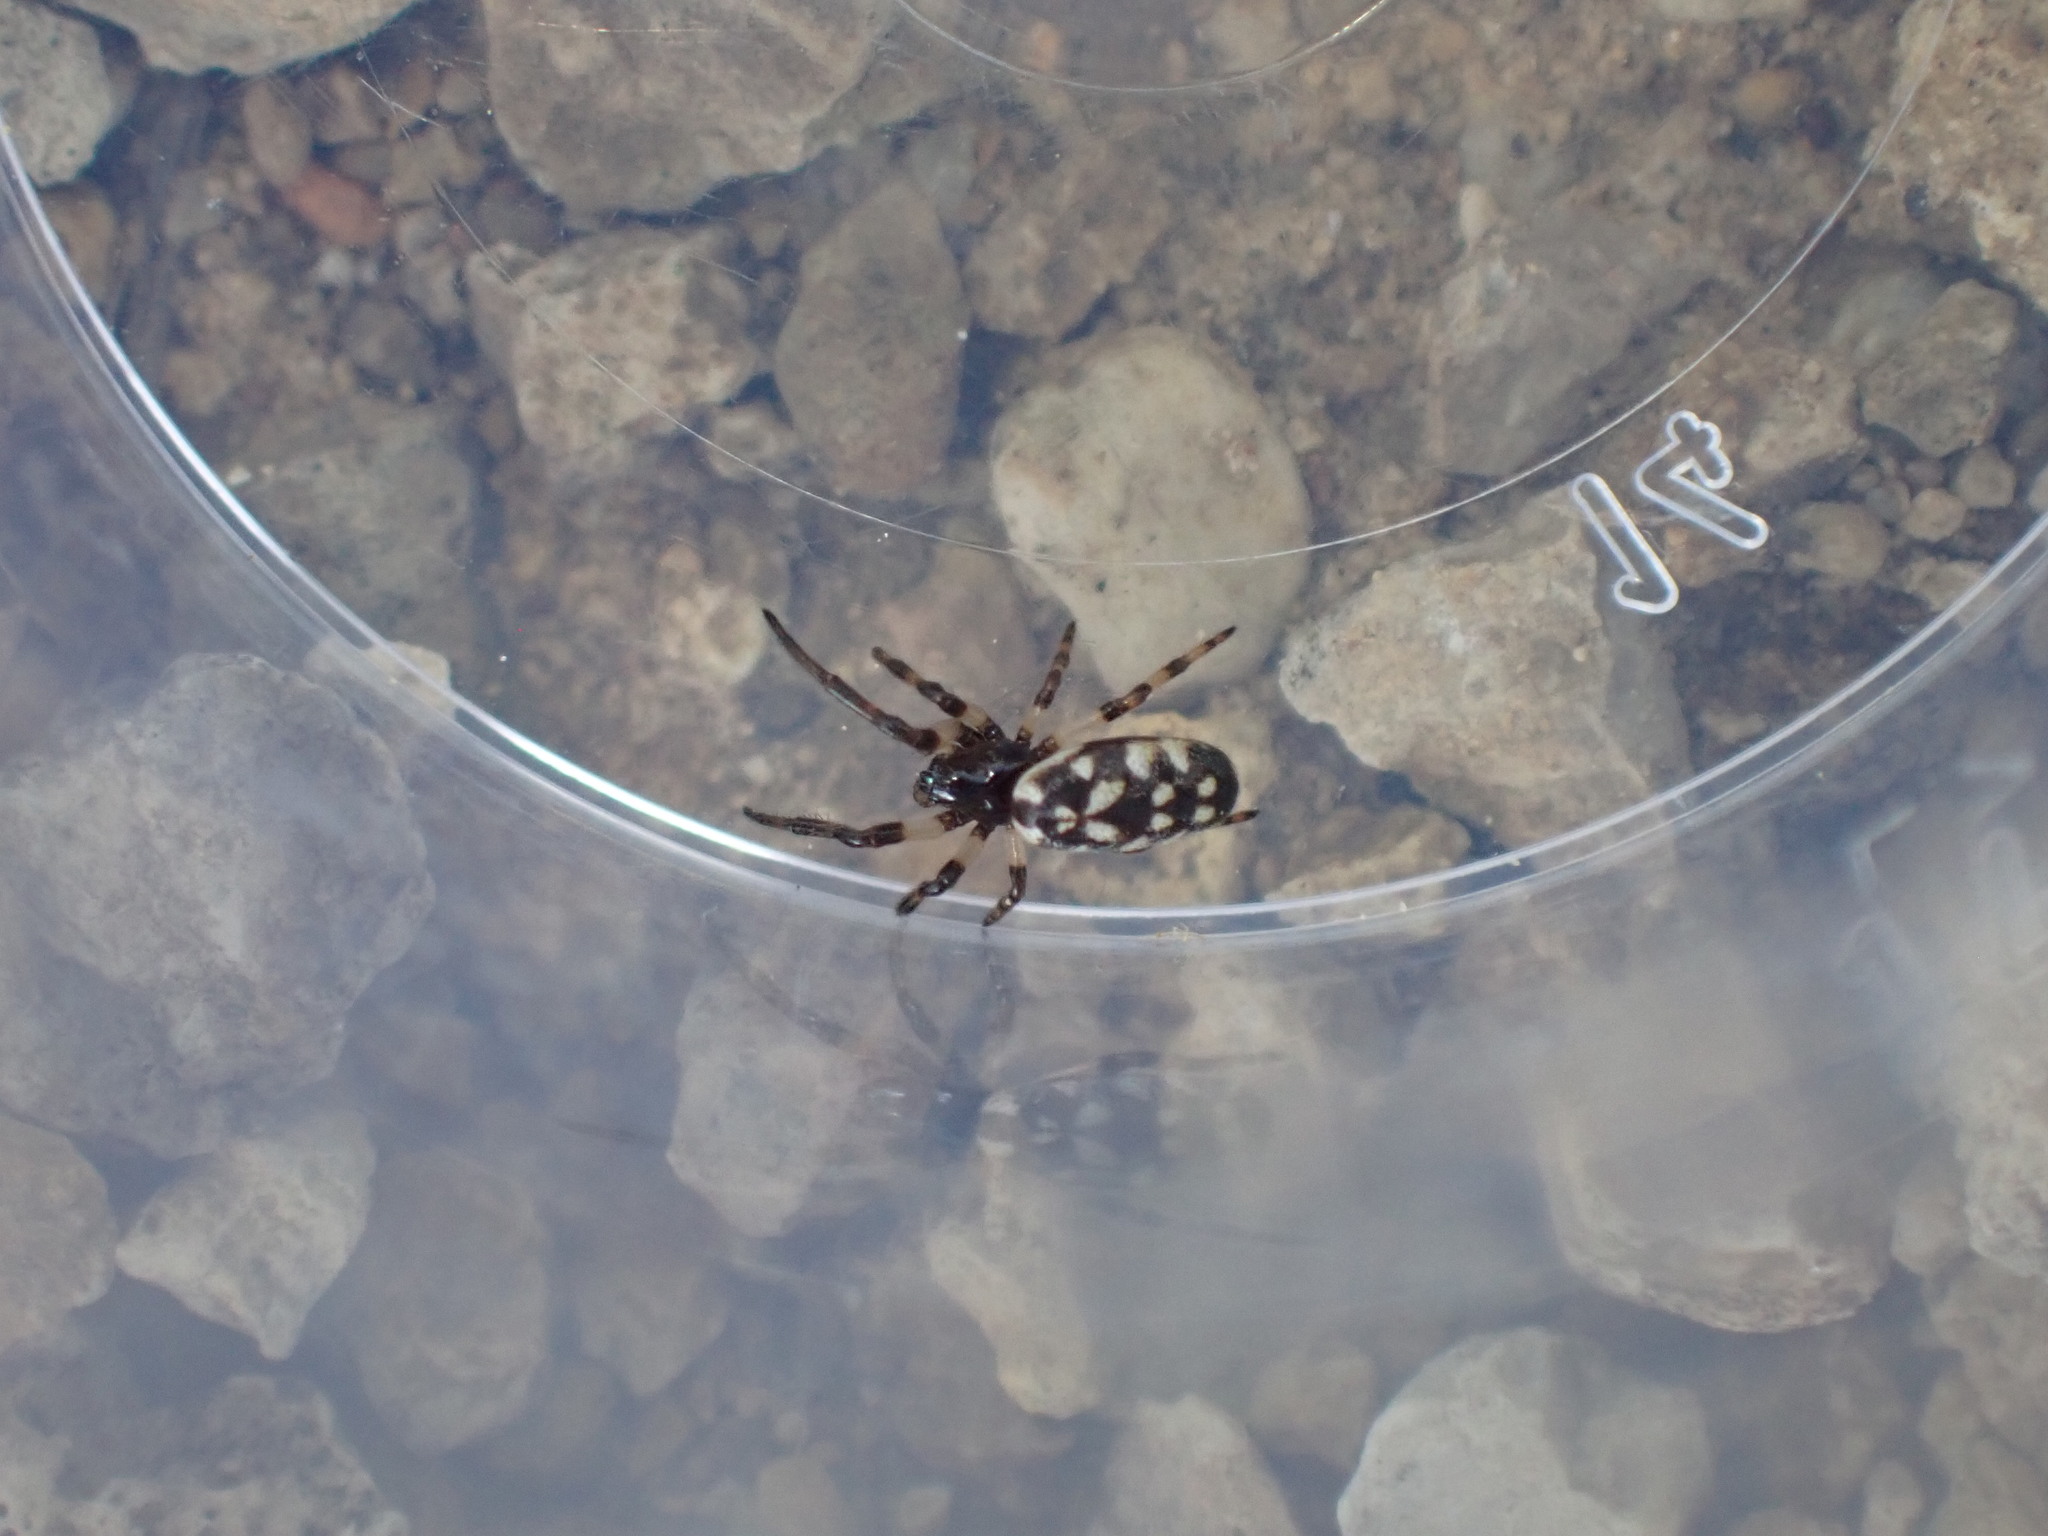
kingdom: Animalia
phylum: Arthropoda
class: Arachnida
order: Araneae
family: Araneidae
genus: Nemoscolus
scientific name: Nemoscolus laurae
